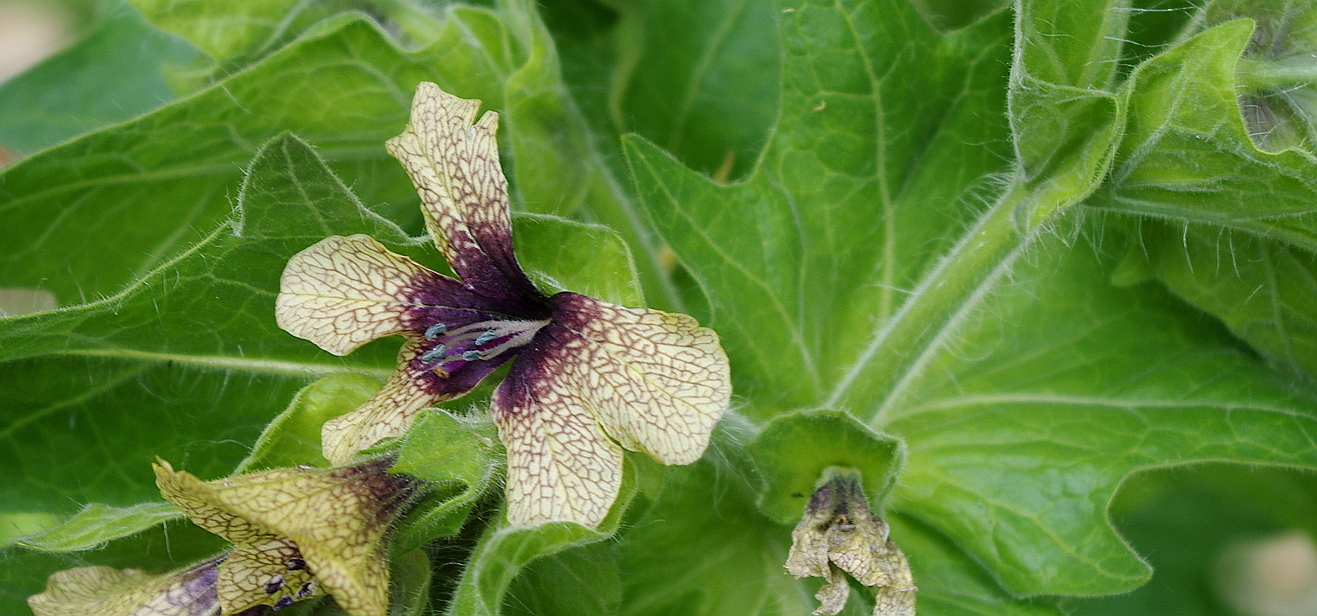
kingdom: Plantae
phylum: Tracheophyta
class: Magnoliopsida
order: Solanales
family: Solanaceae
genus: Hyoscyamus
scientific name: Hyoscyamus niger
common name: Henbane
